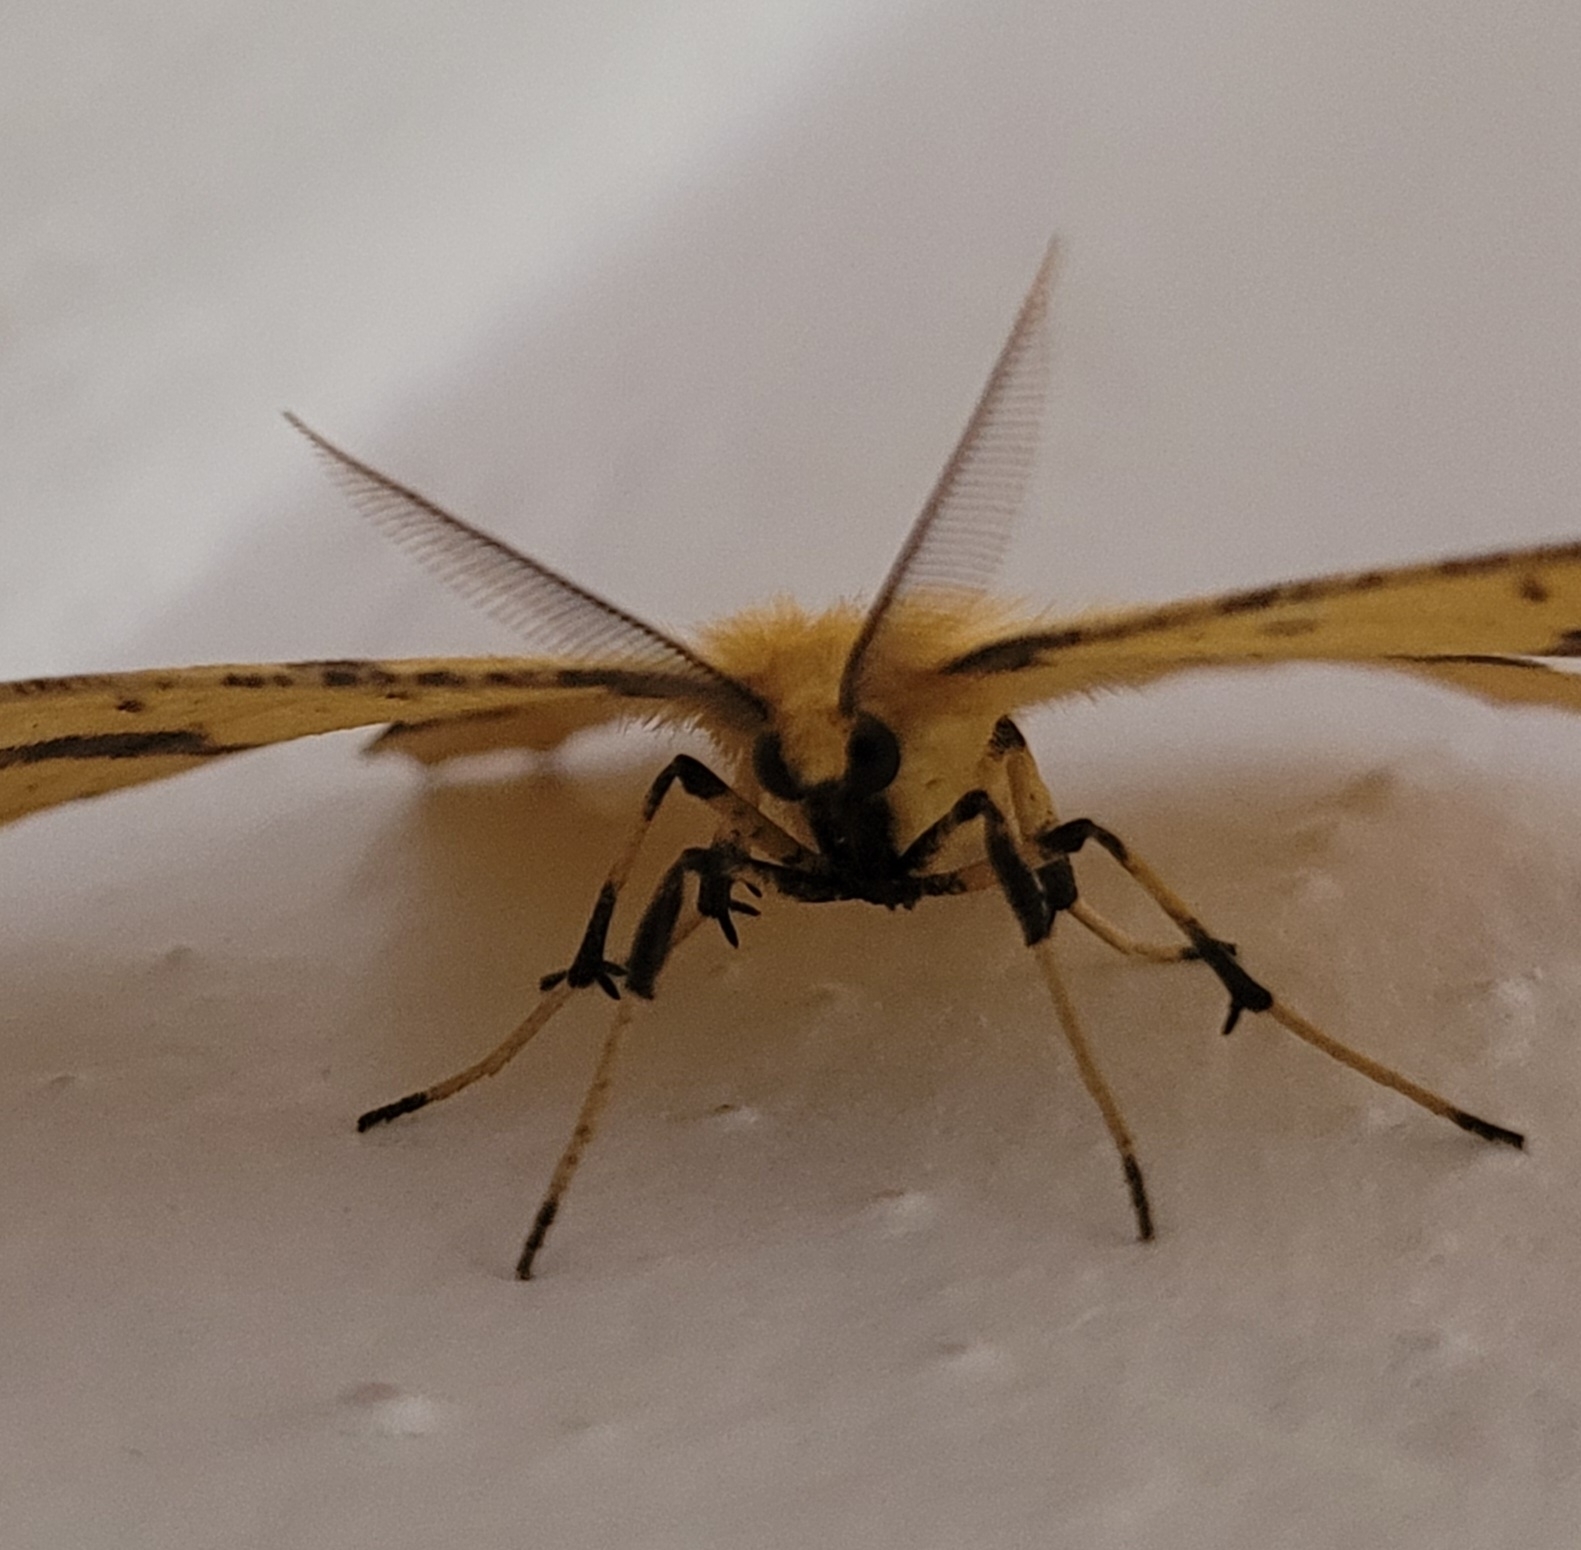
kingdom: Animalia
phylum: Arthropoda
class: Insecta
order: Lepidoptera
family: Geometridae
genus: Xanthotype
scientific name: Xanthotype
